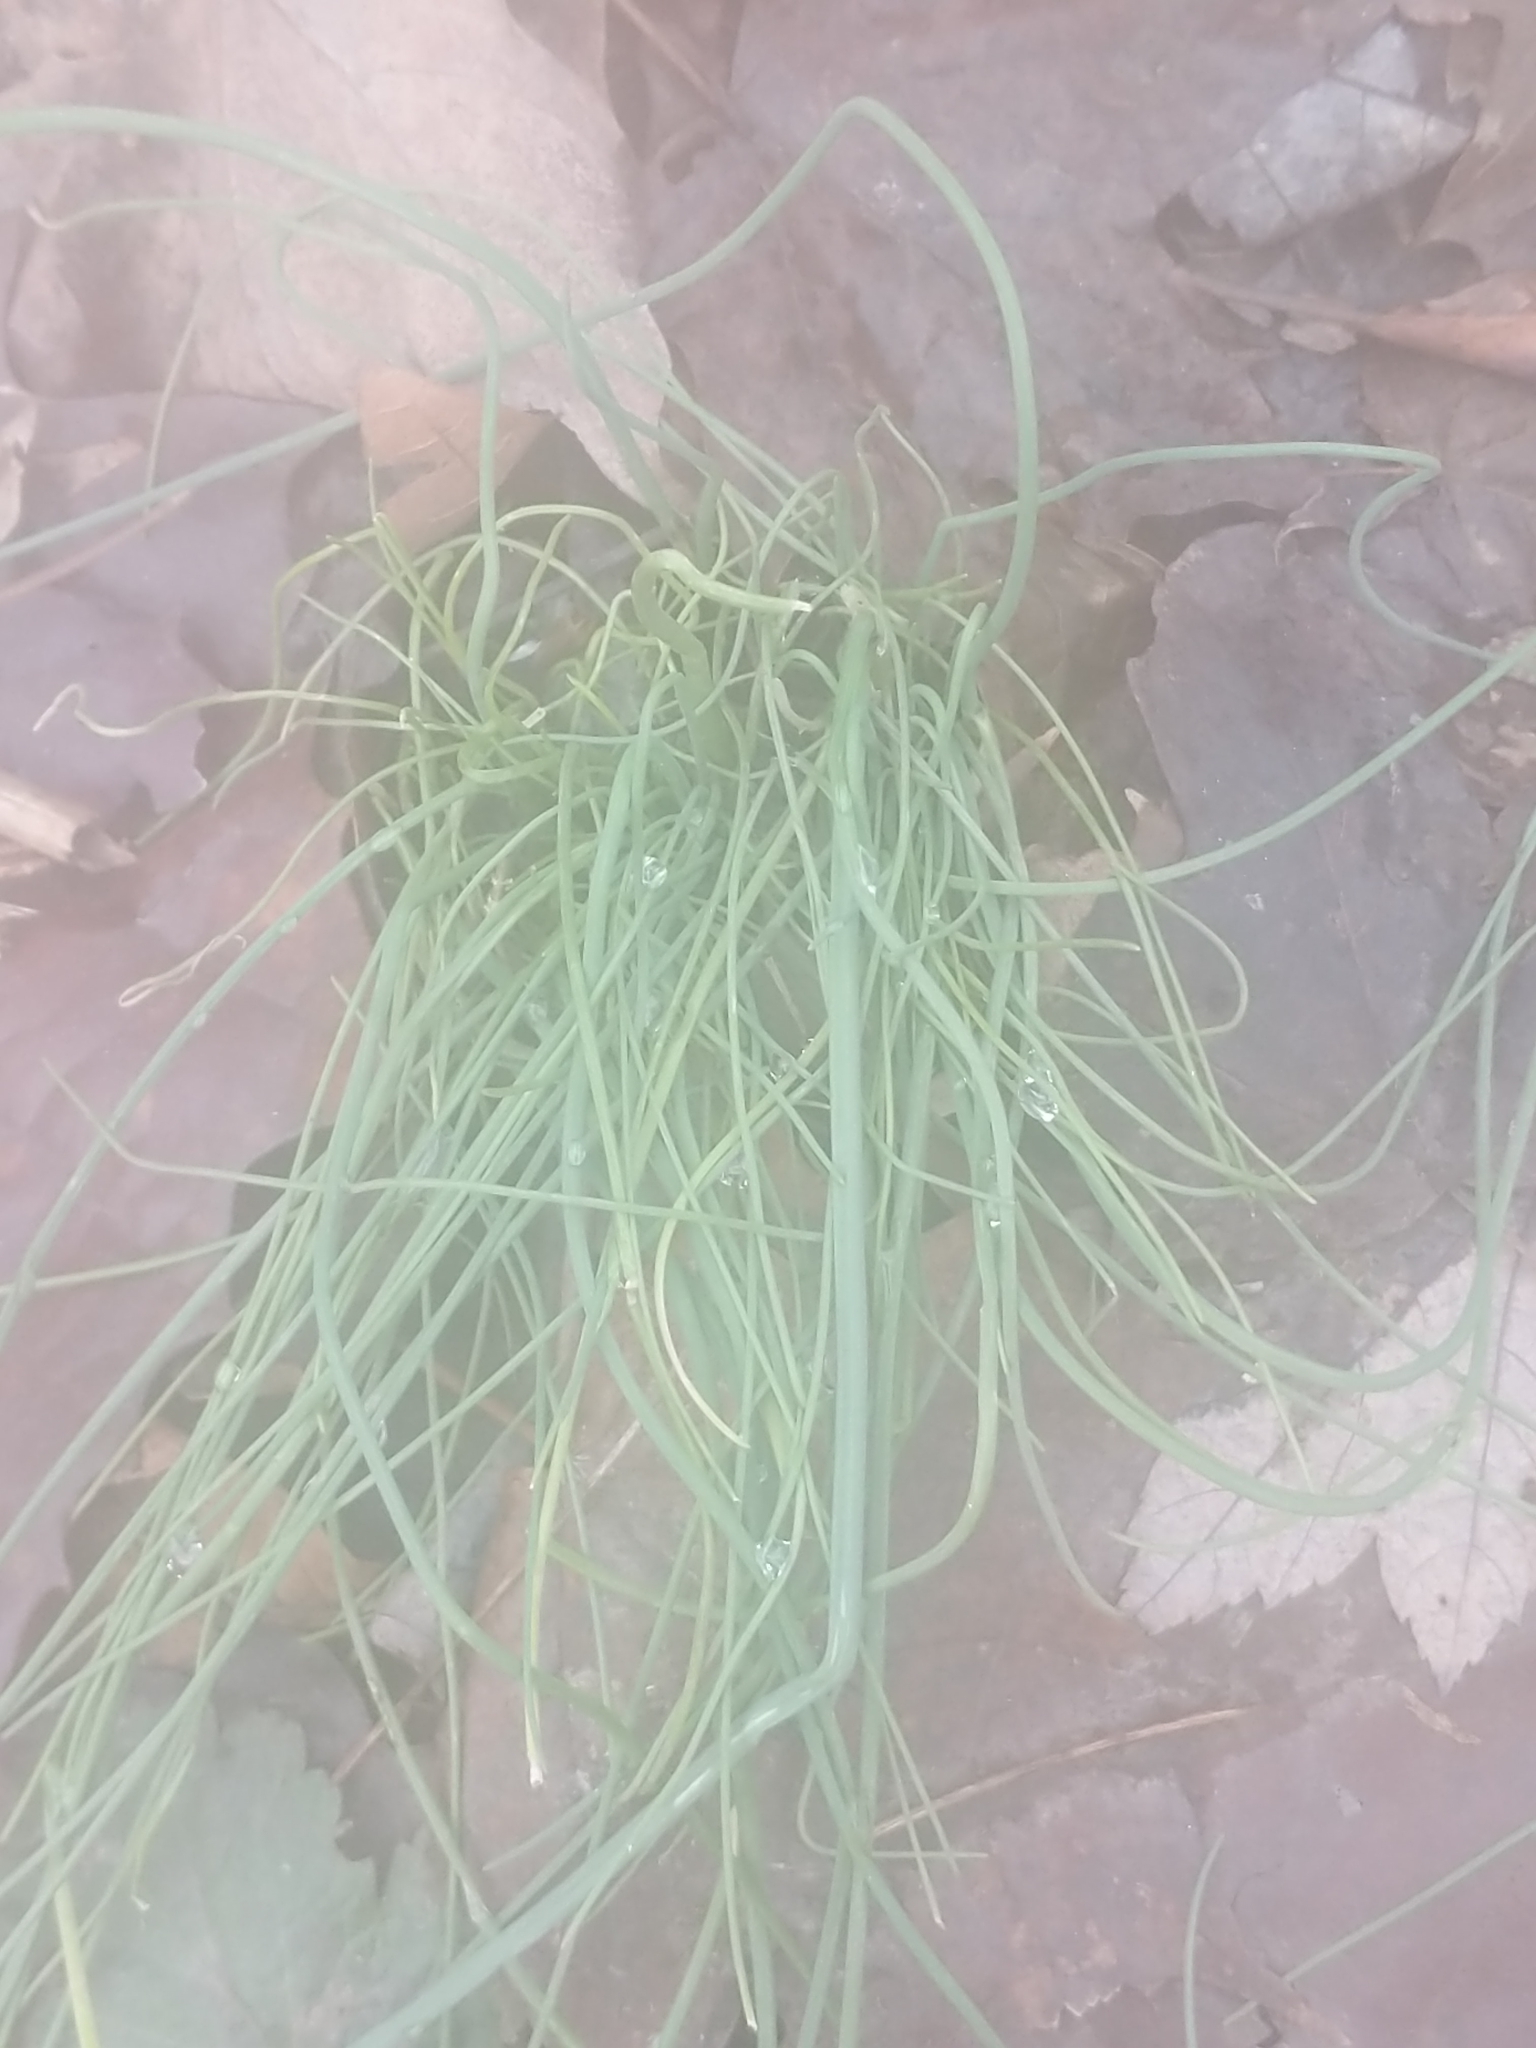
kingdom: Plantae
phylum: Tracheophyta
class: Liliopsida
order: Asparagales
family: Amaryllidaceae
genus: Allium
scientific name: Allium vineale
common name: Crow garlic
